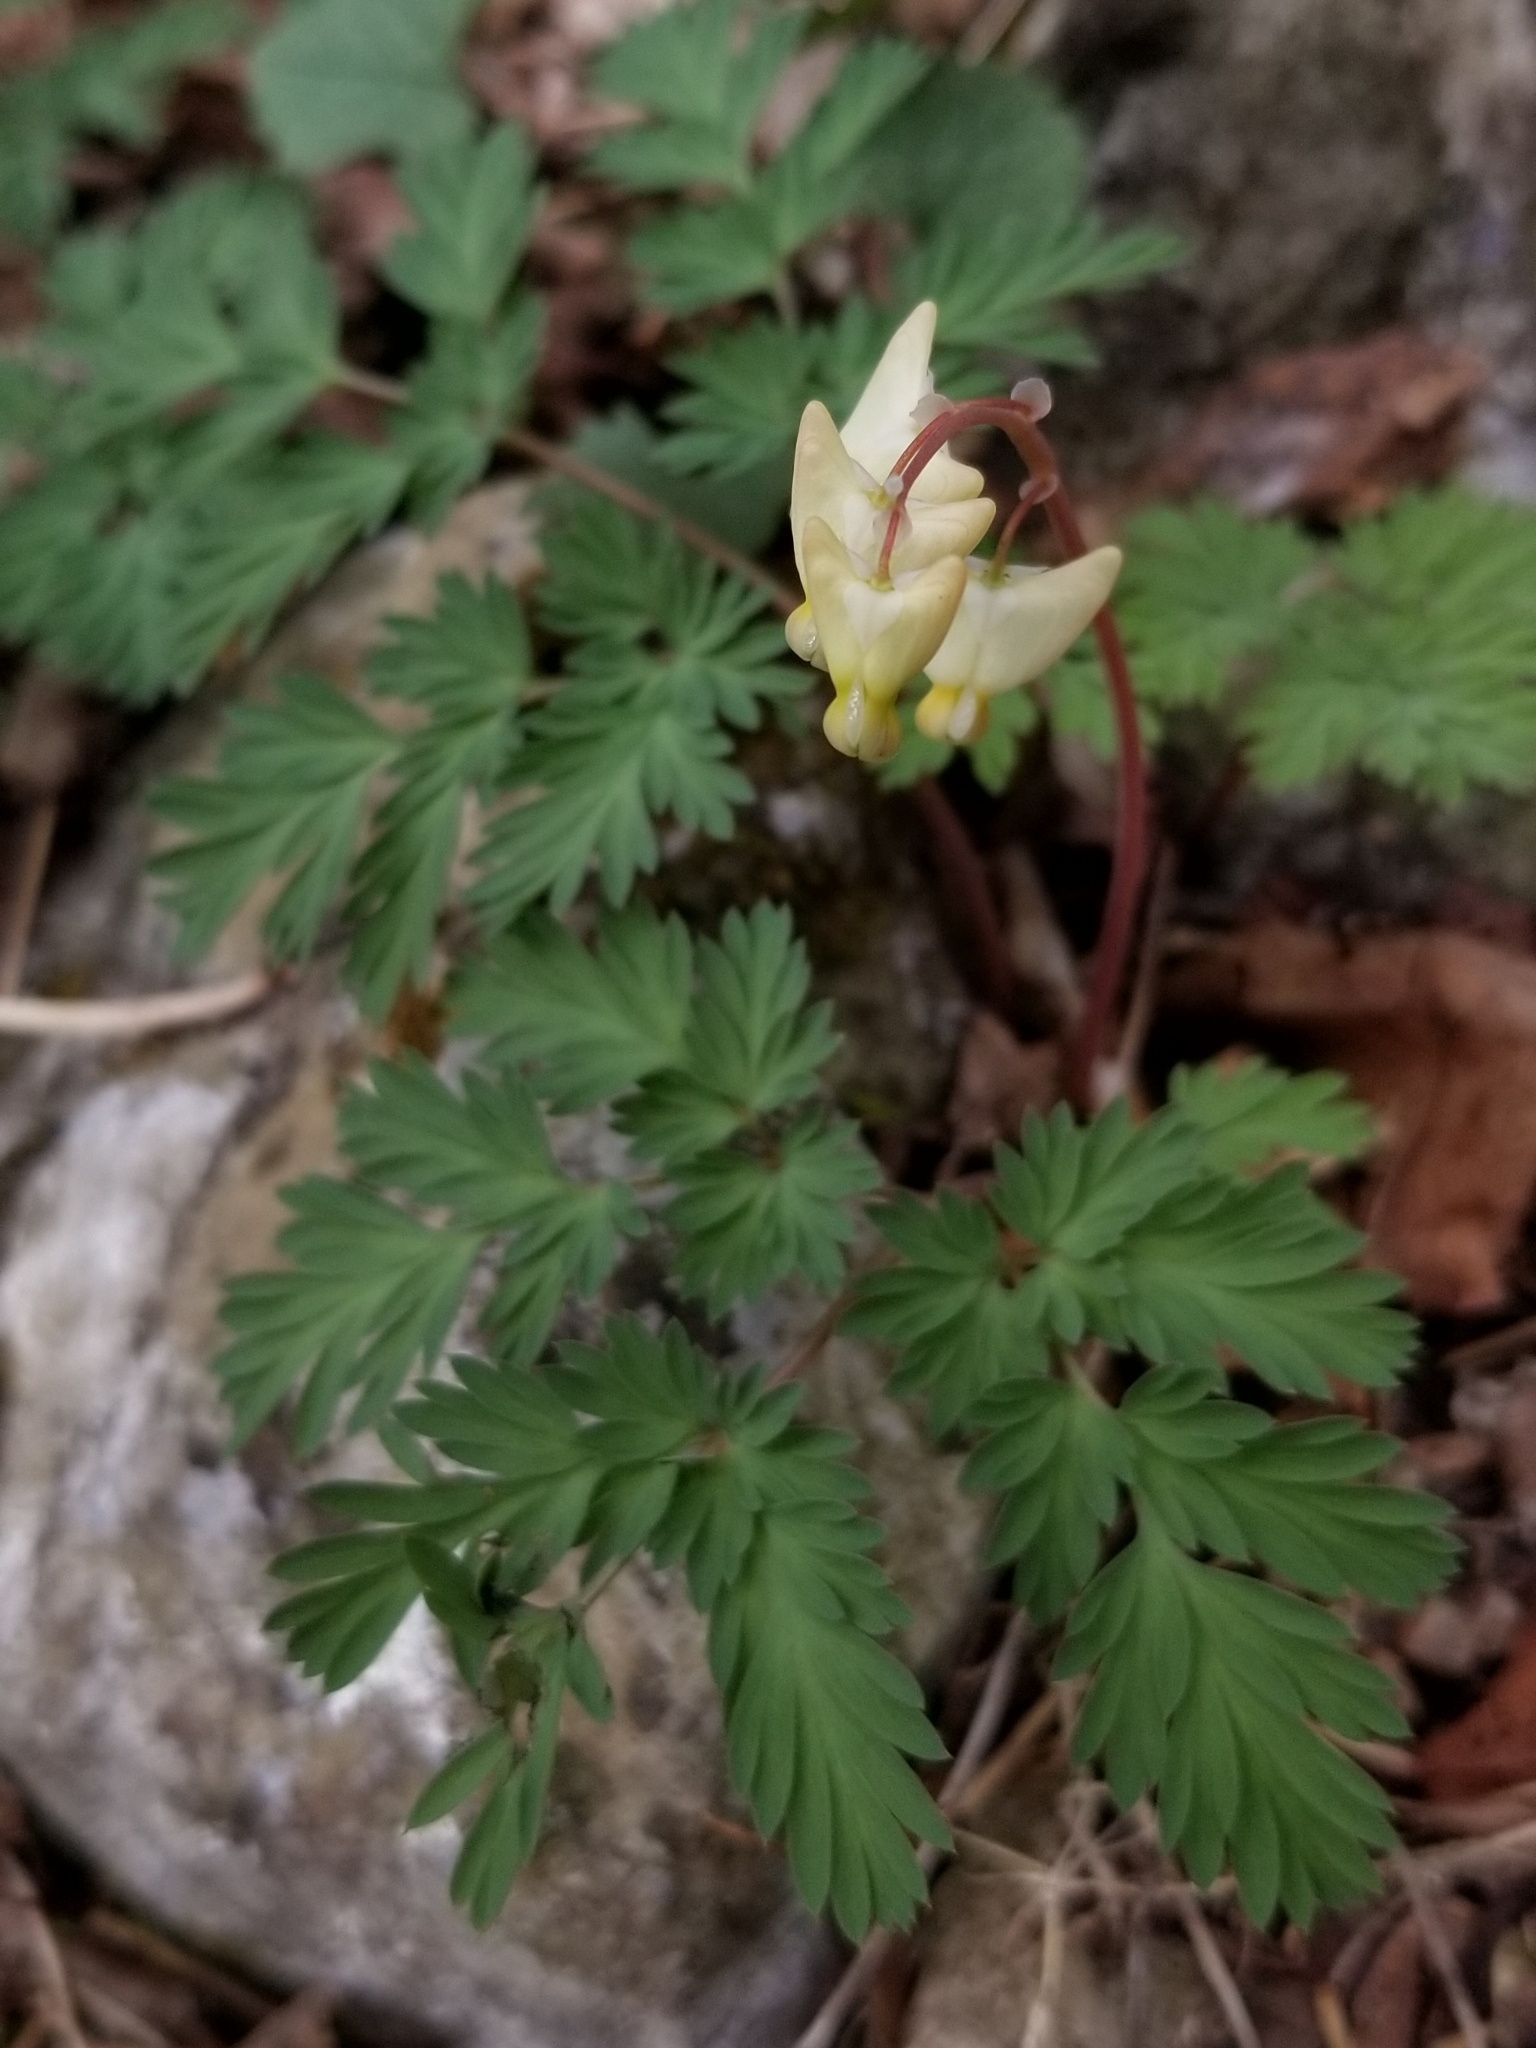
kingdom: Plantae
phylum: Tracheophyta
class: Magnoliopsida
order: Ranunculales
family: Papaveraceae
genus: Dicentra
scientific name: Dicentra cucullaria
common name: Dutchman's breeches
